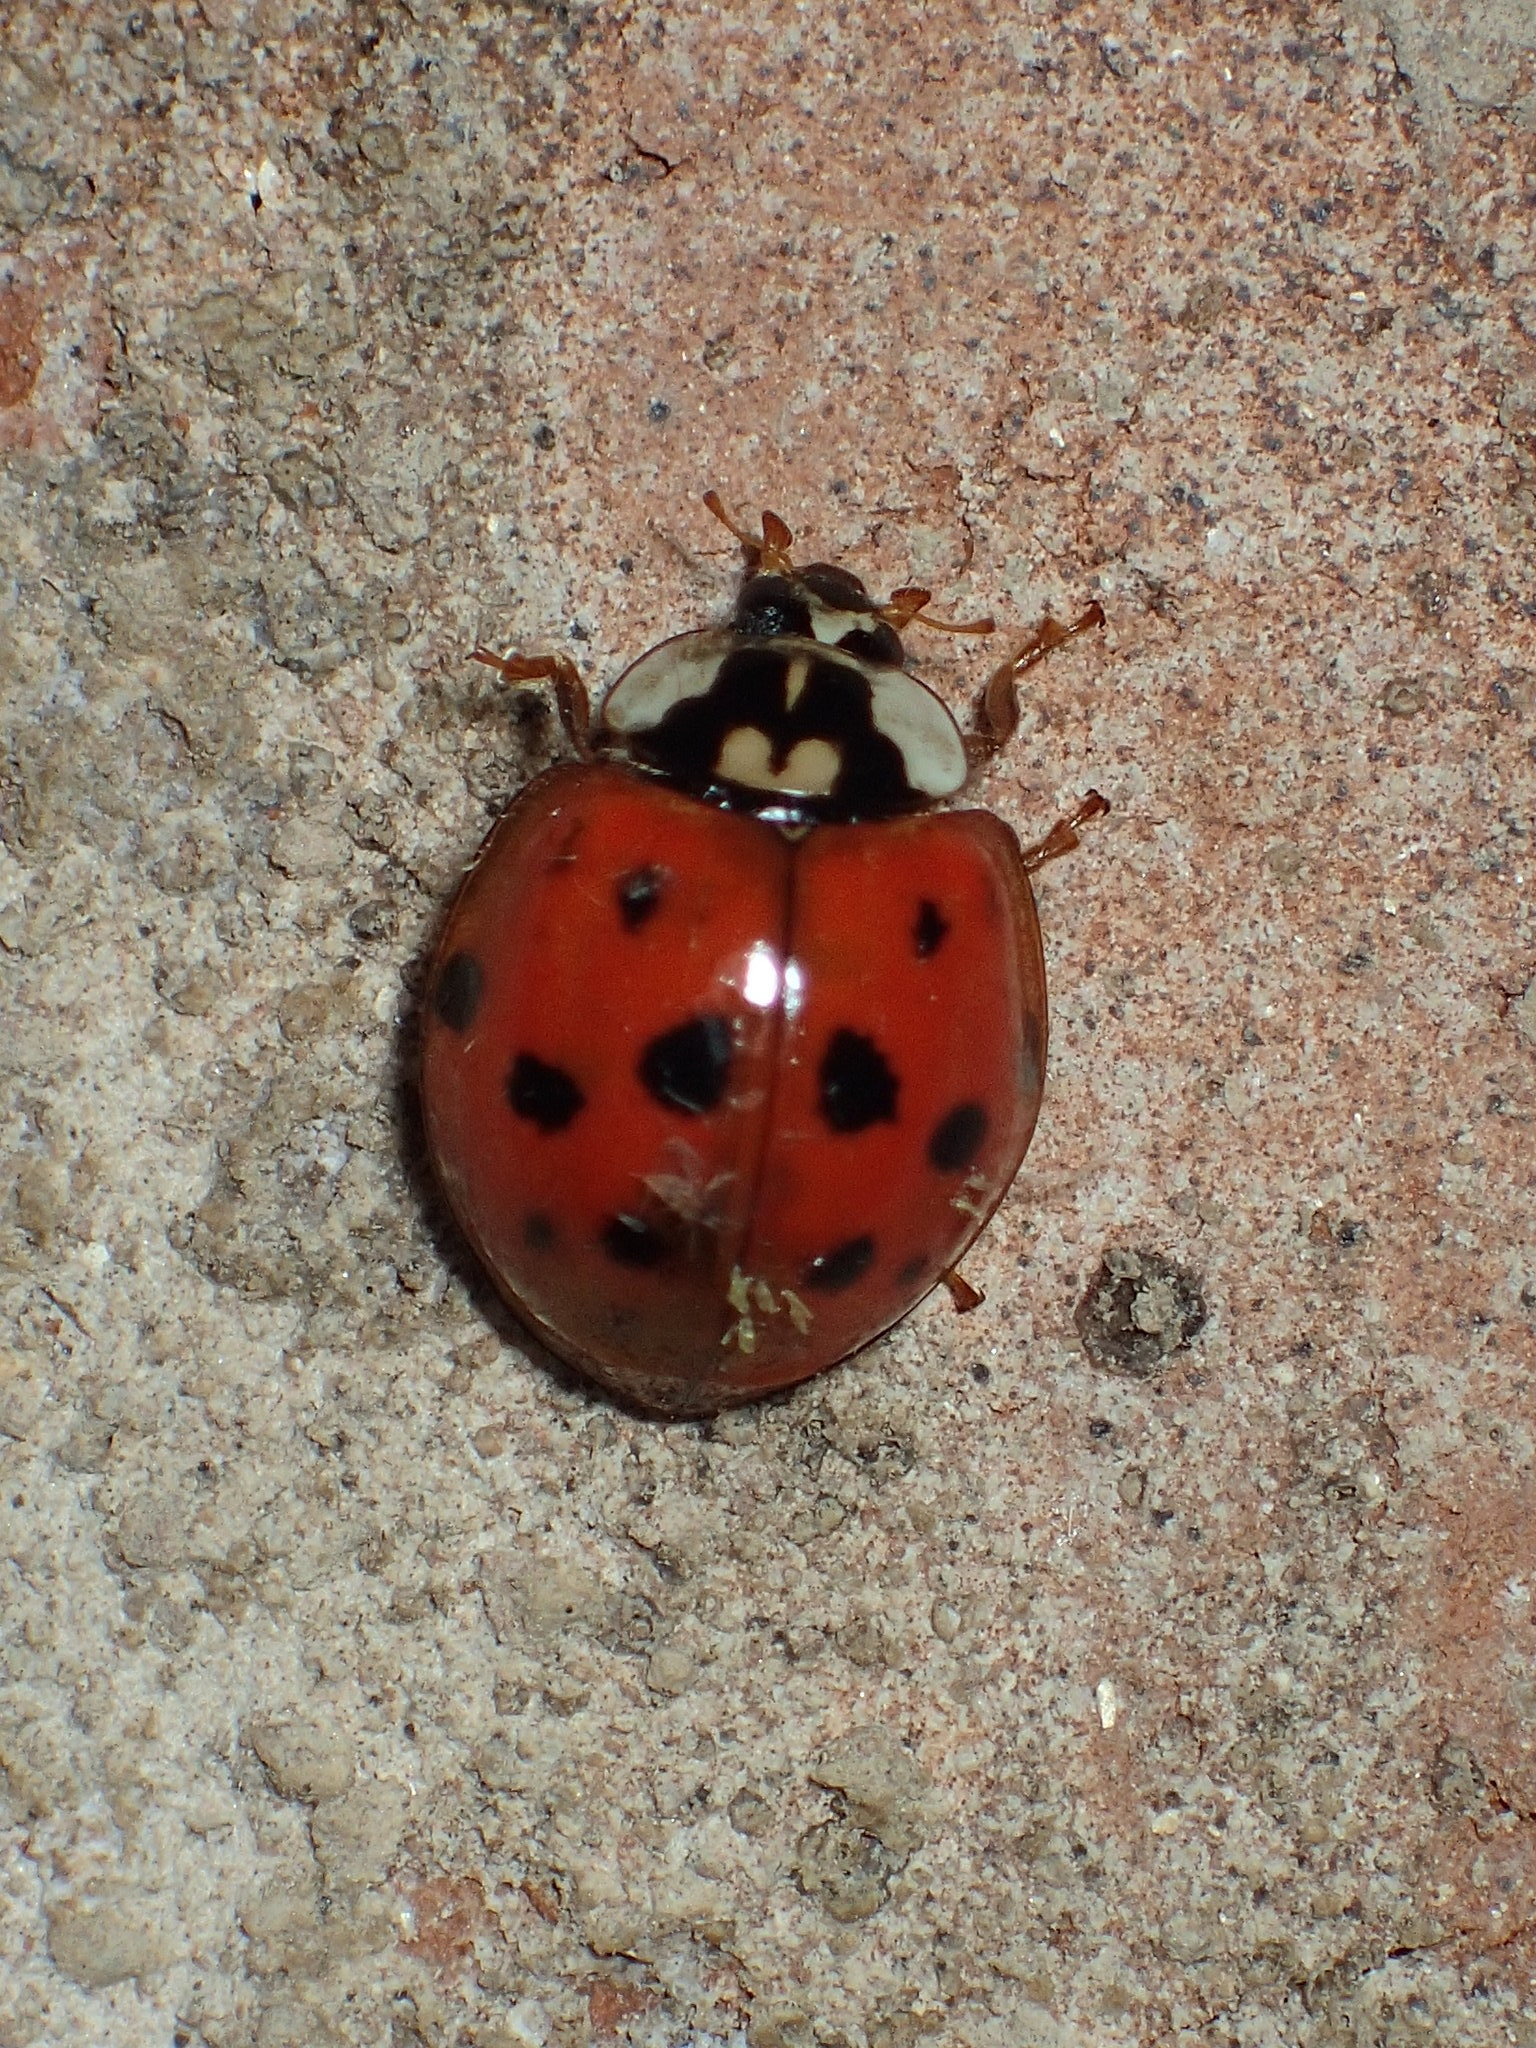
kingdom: Animalia
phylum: Arthropoda
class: Insecta
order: Coleoptera
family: Coccinellidae
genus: Harmonia
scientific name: Harmonia axyridis
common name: Harlequin ladybird
